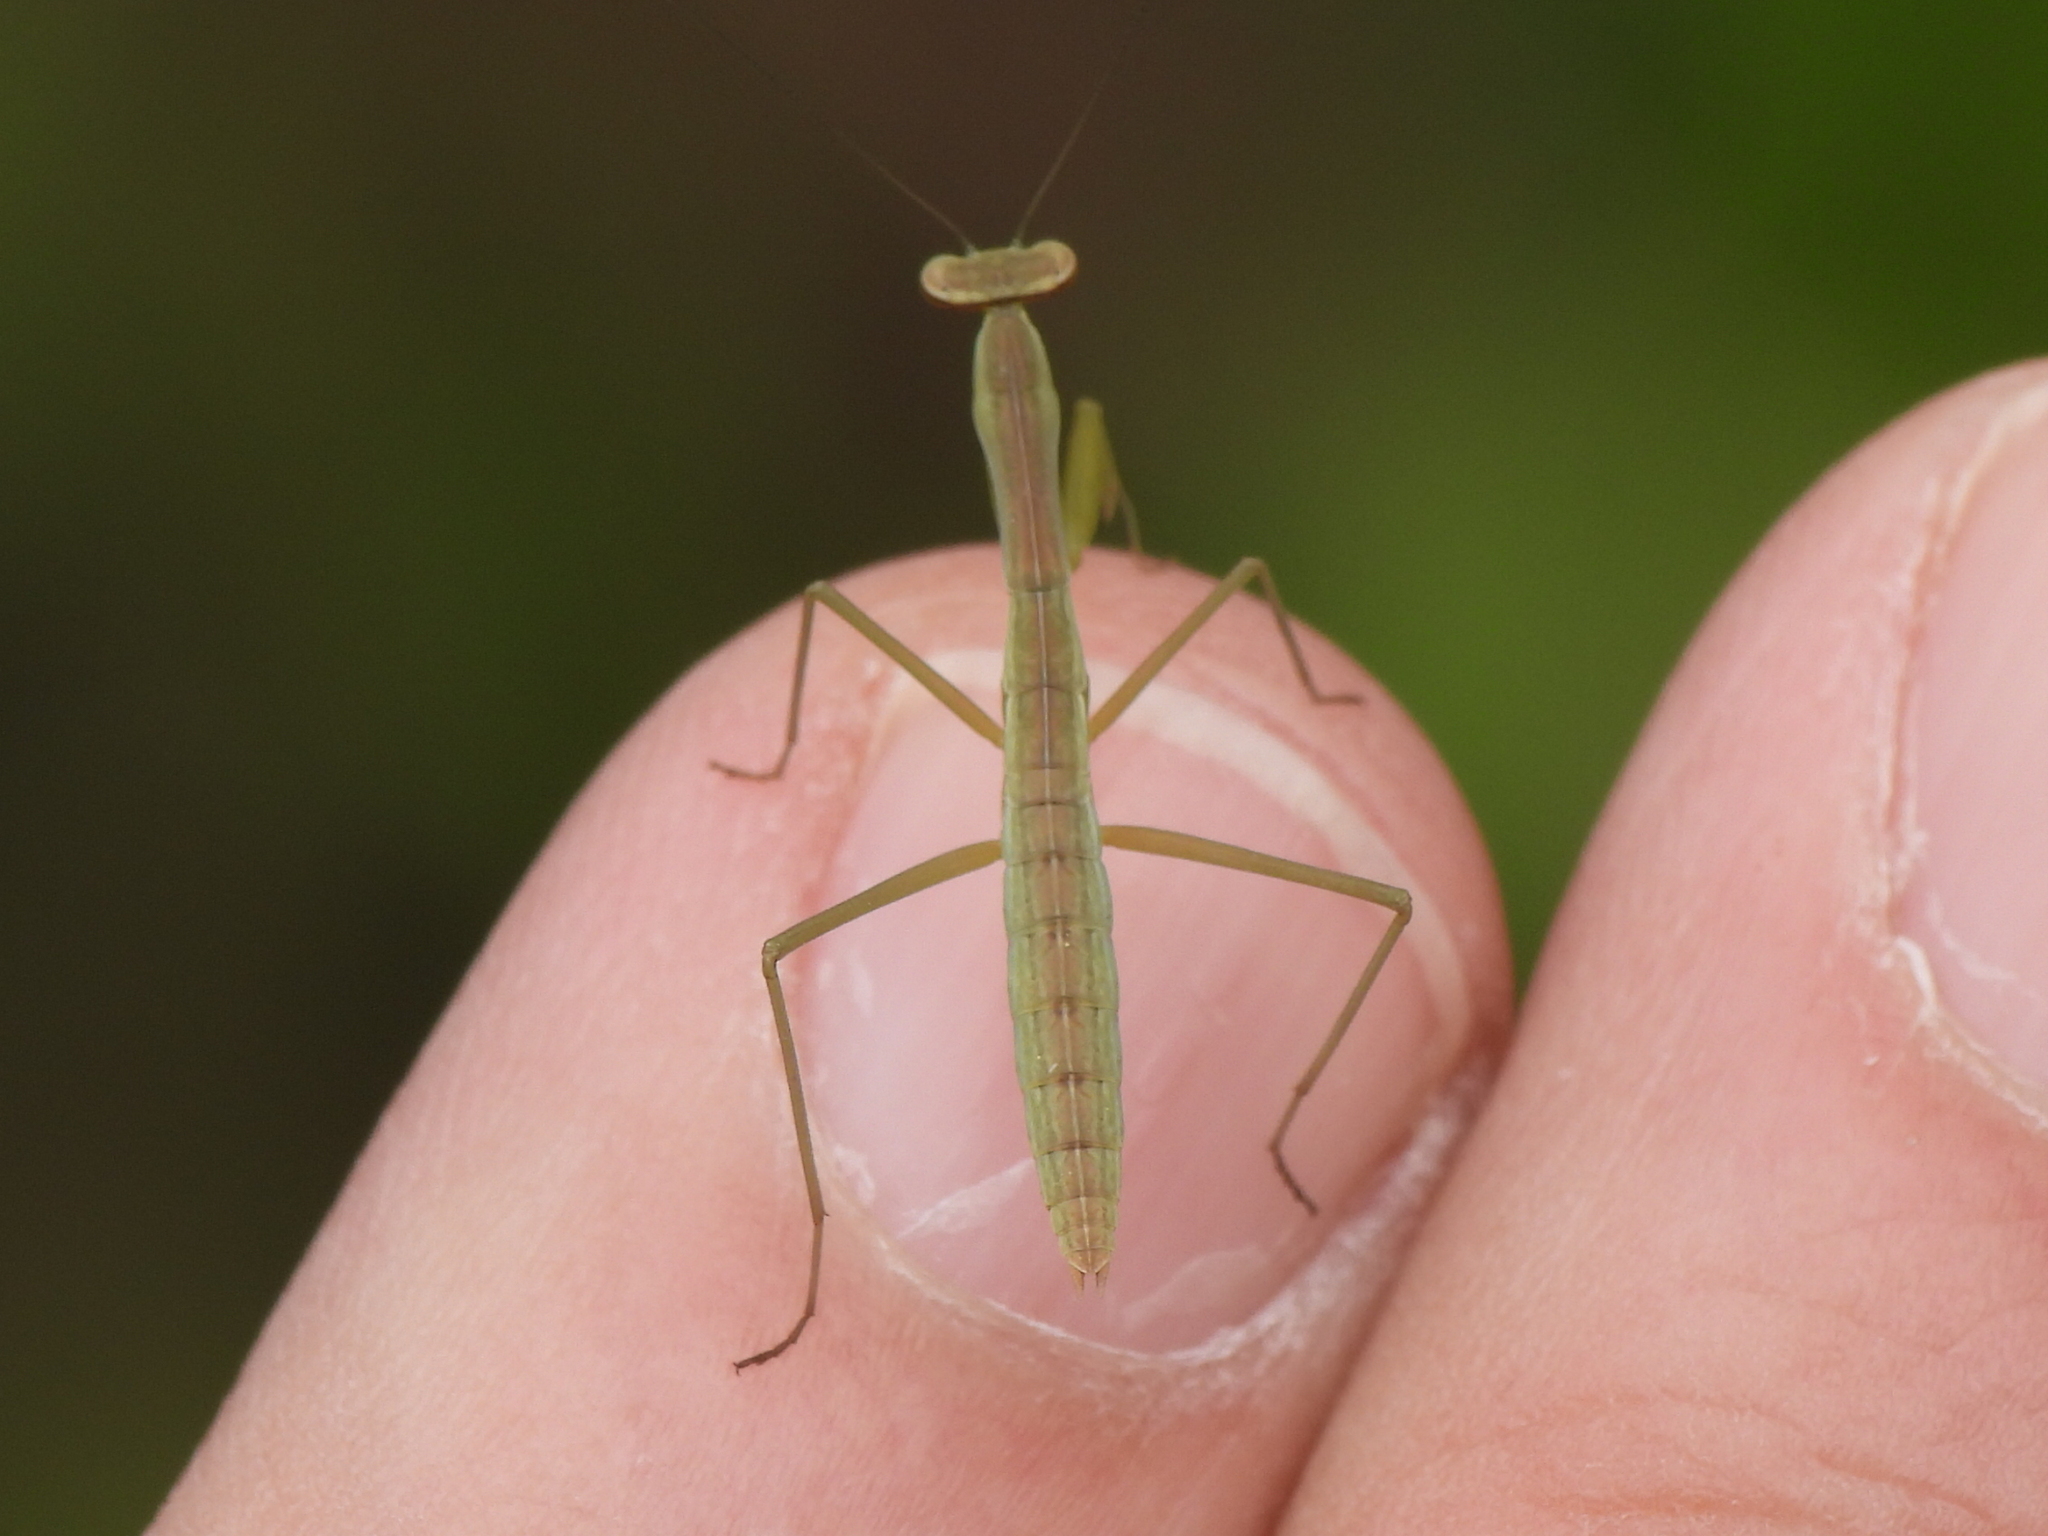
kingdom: Animalia
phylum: Arthropoda
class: Insecta
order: Mantodea
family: Mantidae
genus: Tenodera
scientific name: Tenodera sinensis
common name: Chinese mantis
